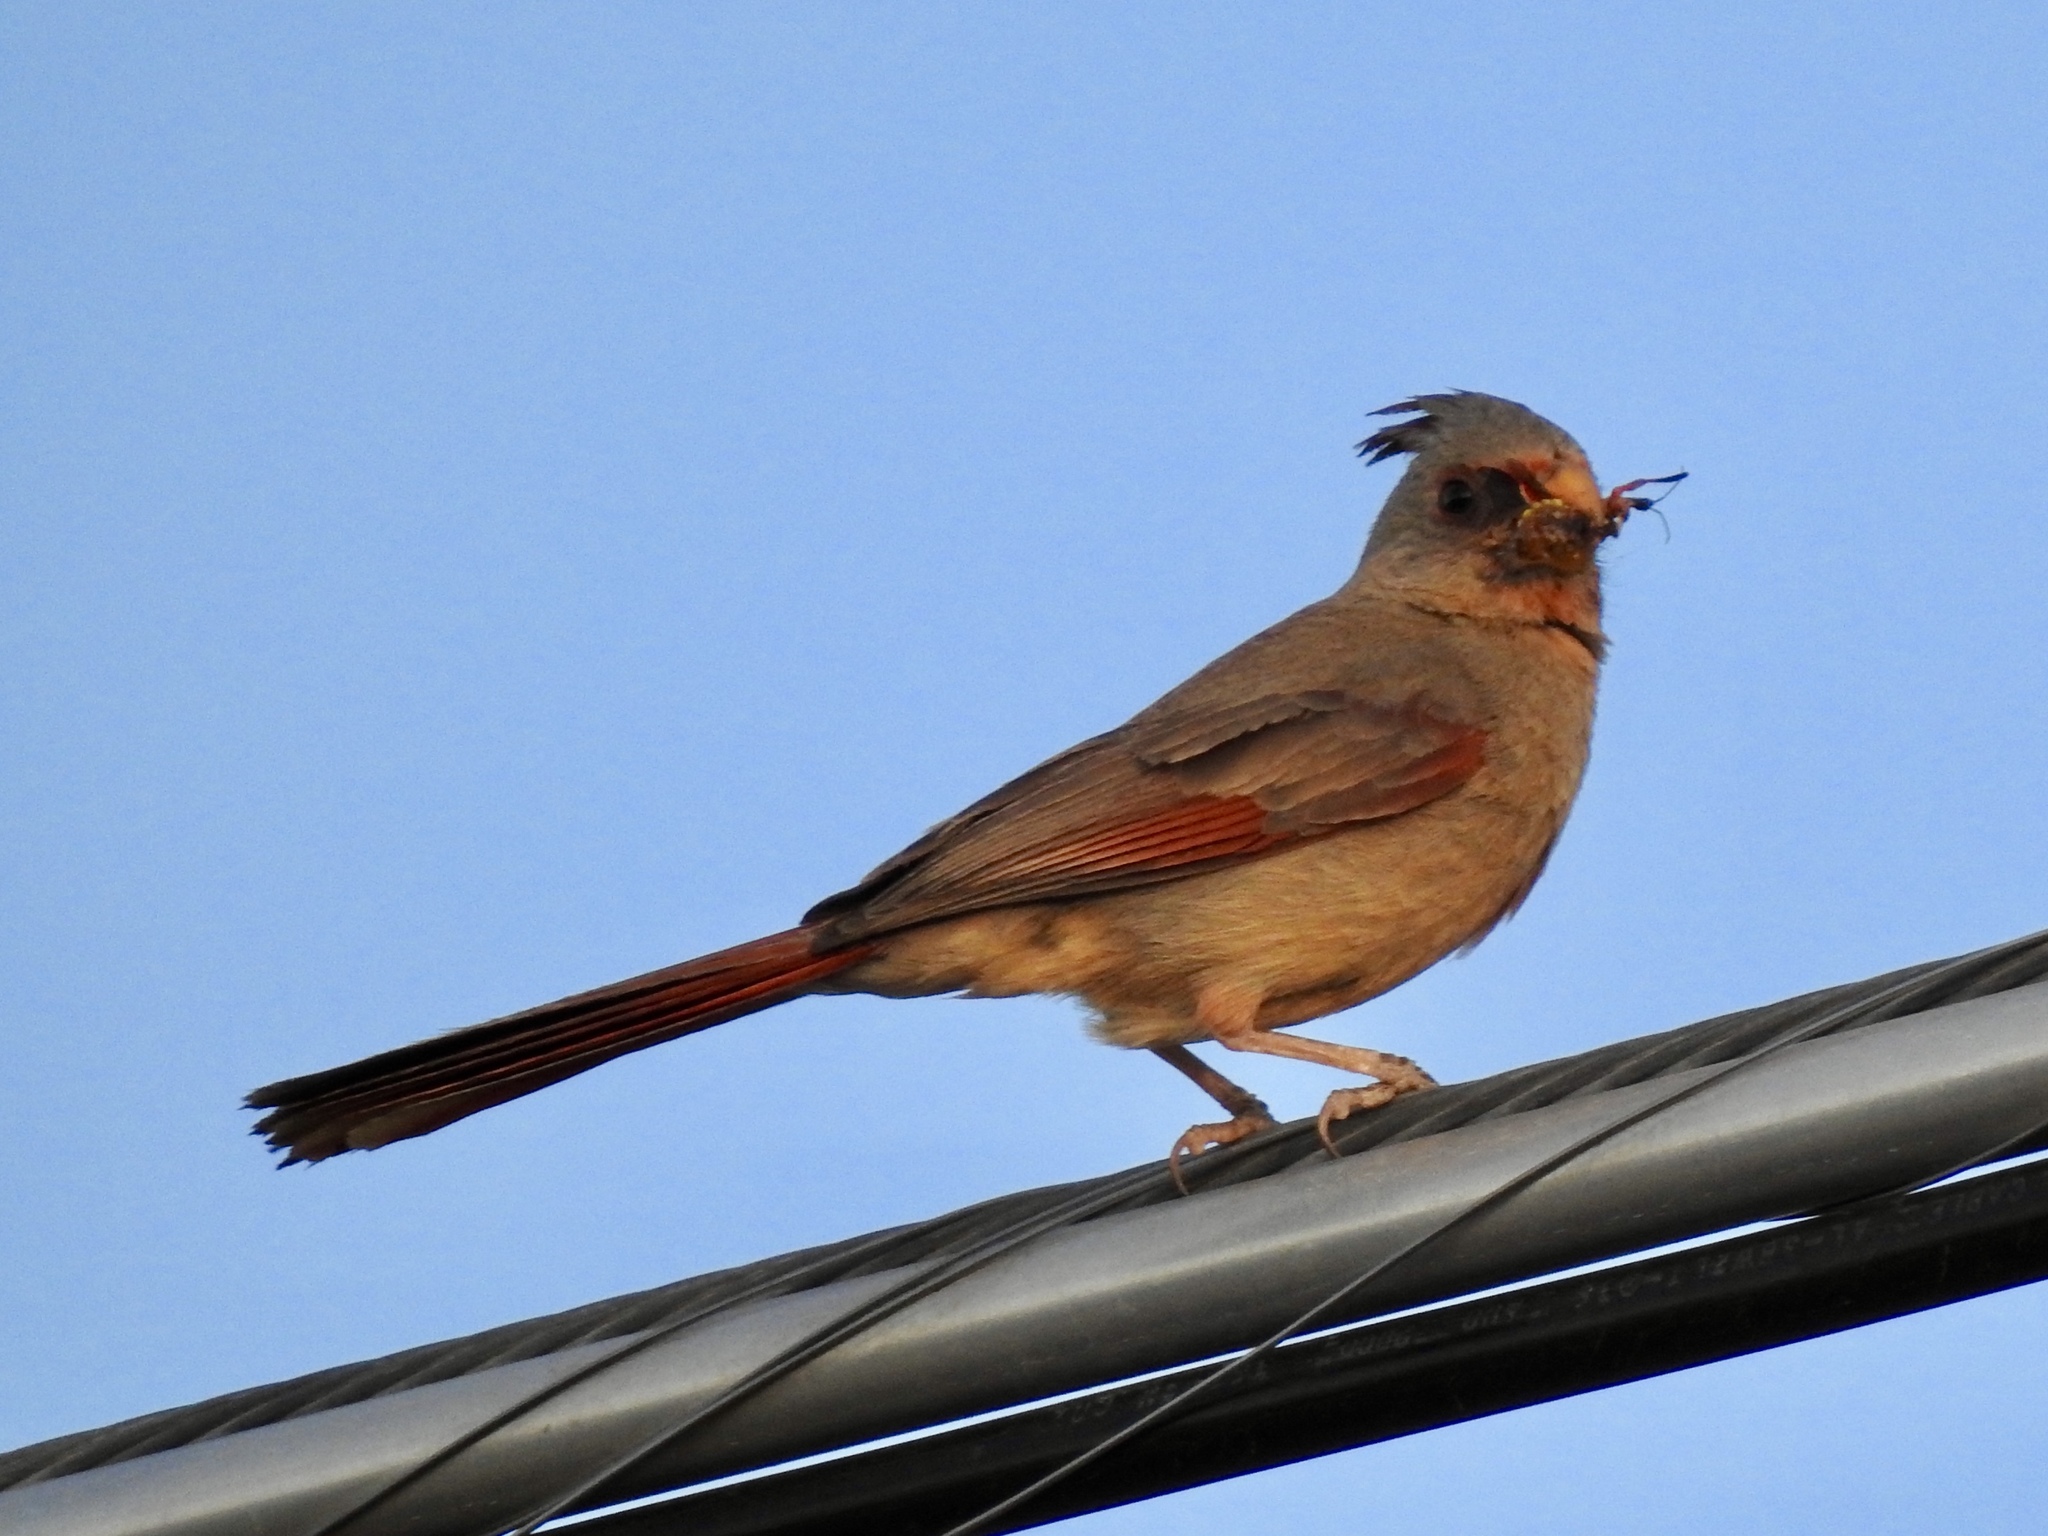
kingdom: Animalia
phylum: Chordata
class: Aves
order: Passeriformes
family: Cardinalidae
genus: Cardinalis
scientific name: Cardinalis sinuatus
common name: Pyrrhuloxia
